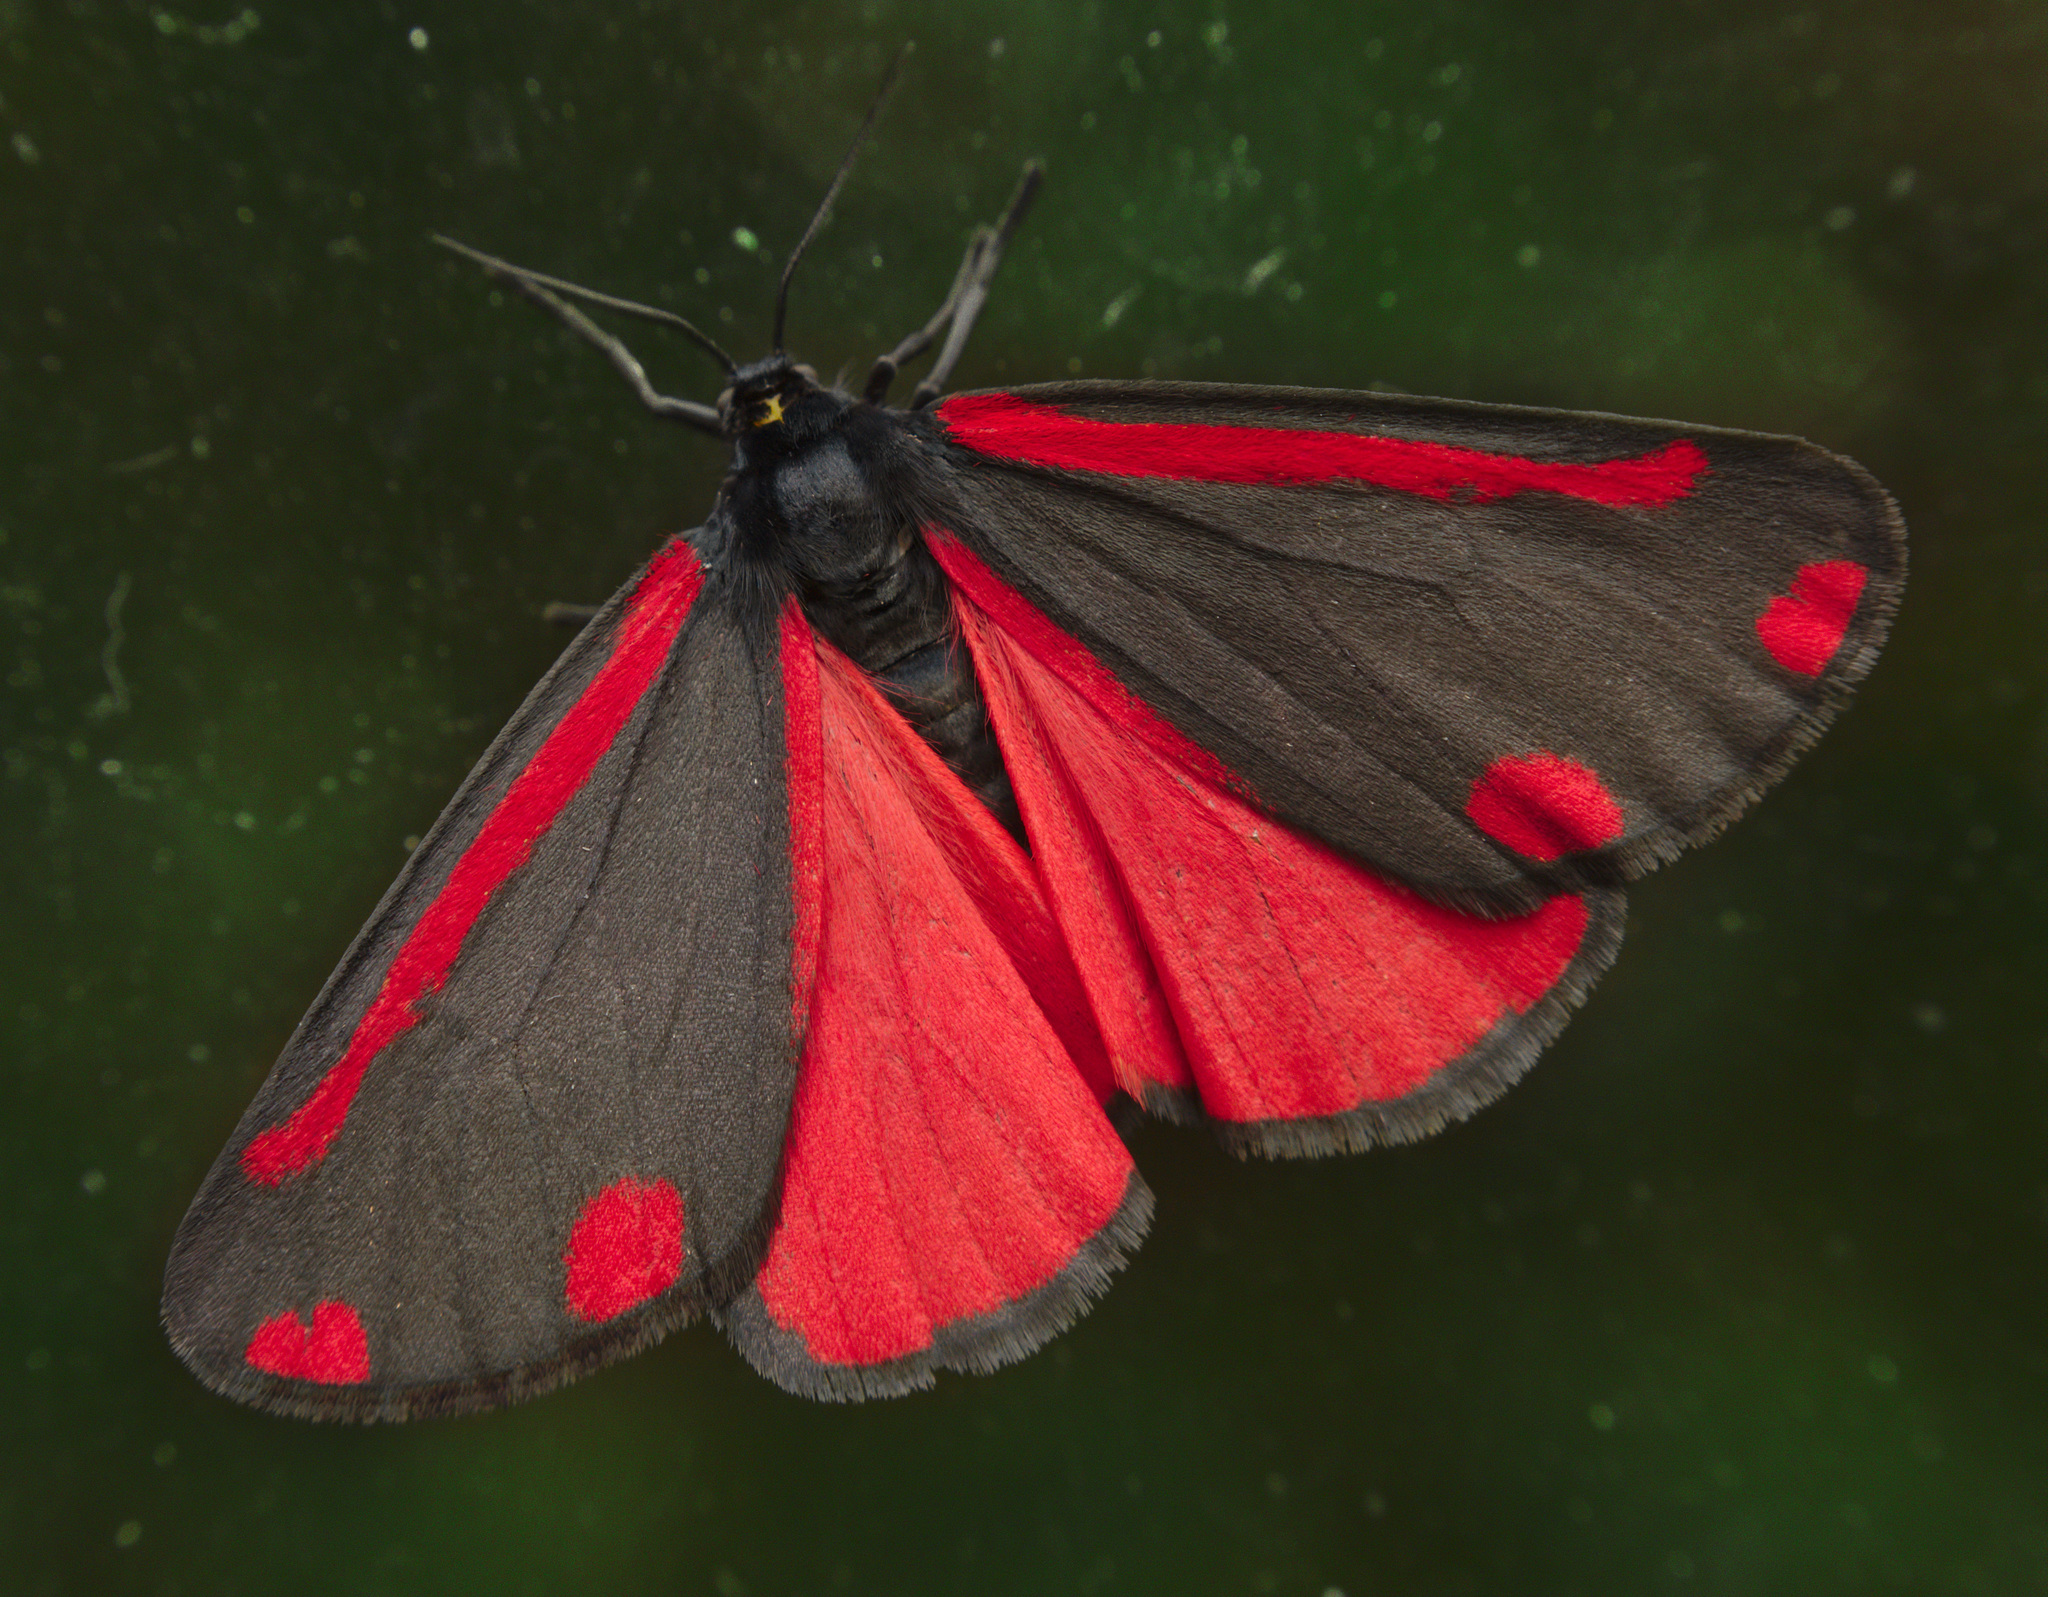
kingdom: Animalia
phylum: Arthropoda
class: Insecta
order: Lepidoptera
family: Erebidae
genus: Tyria
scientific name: Tyria jacobaeae
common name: Cinnabar
